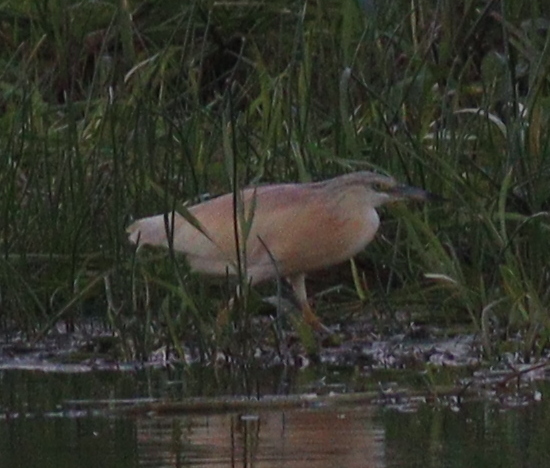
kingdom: Animalia
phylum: Chordata
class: Aves
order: Pelecaniformes
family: Ardeidae
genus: Ardeola
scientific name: Ardeola ralloides
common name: Squacco heron
